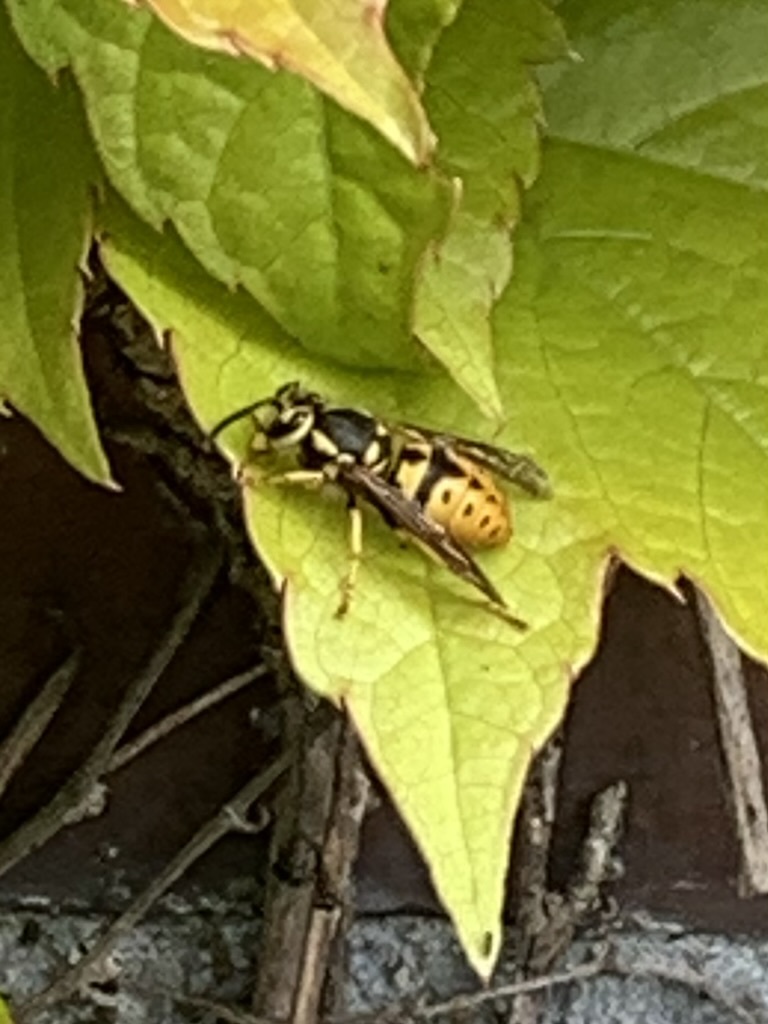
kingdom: Animalia
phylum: Arthropoda
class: Insecta
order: Hymenoptera
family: Vespidae
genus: Vespula
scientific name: Vespula pensylvanica
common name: Western yellowjacket
